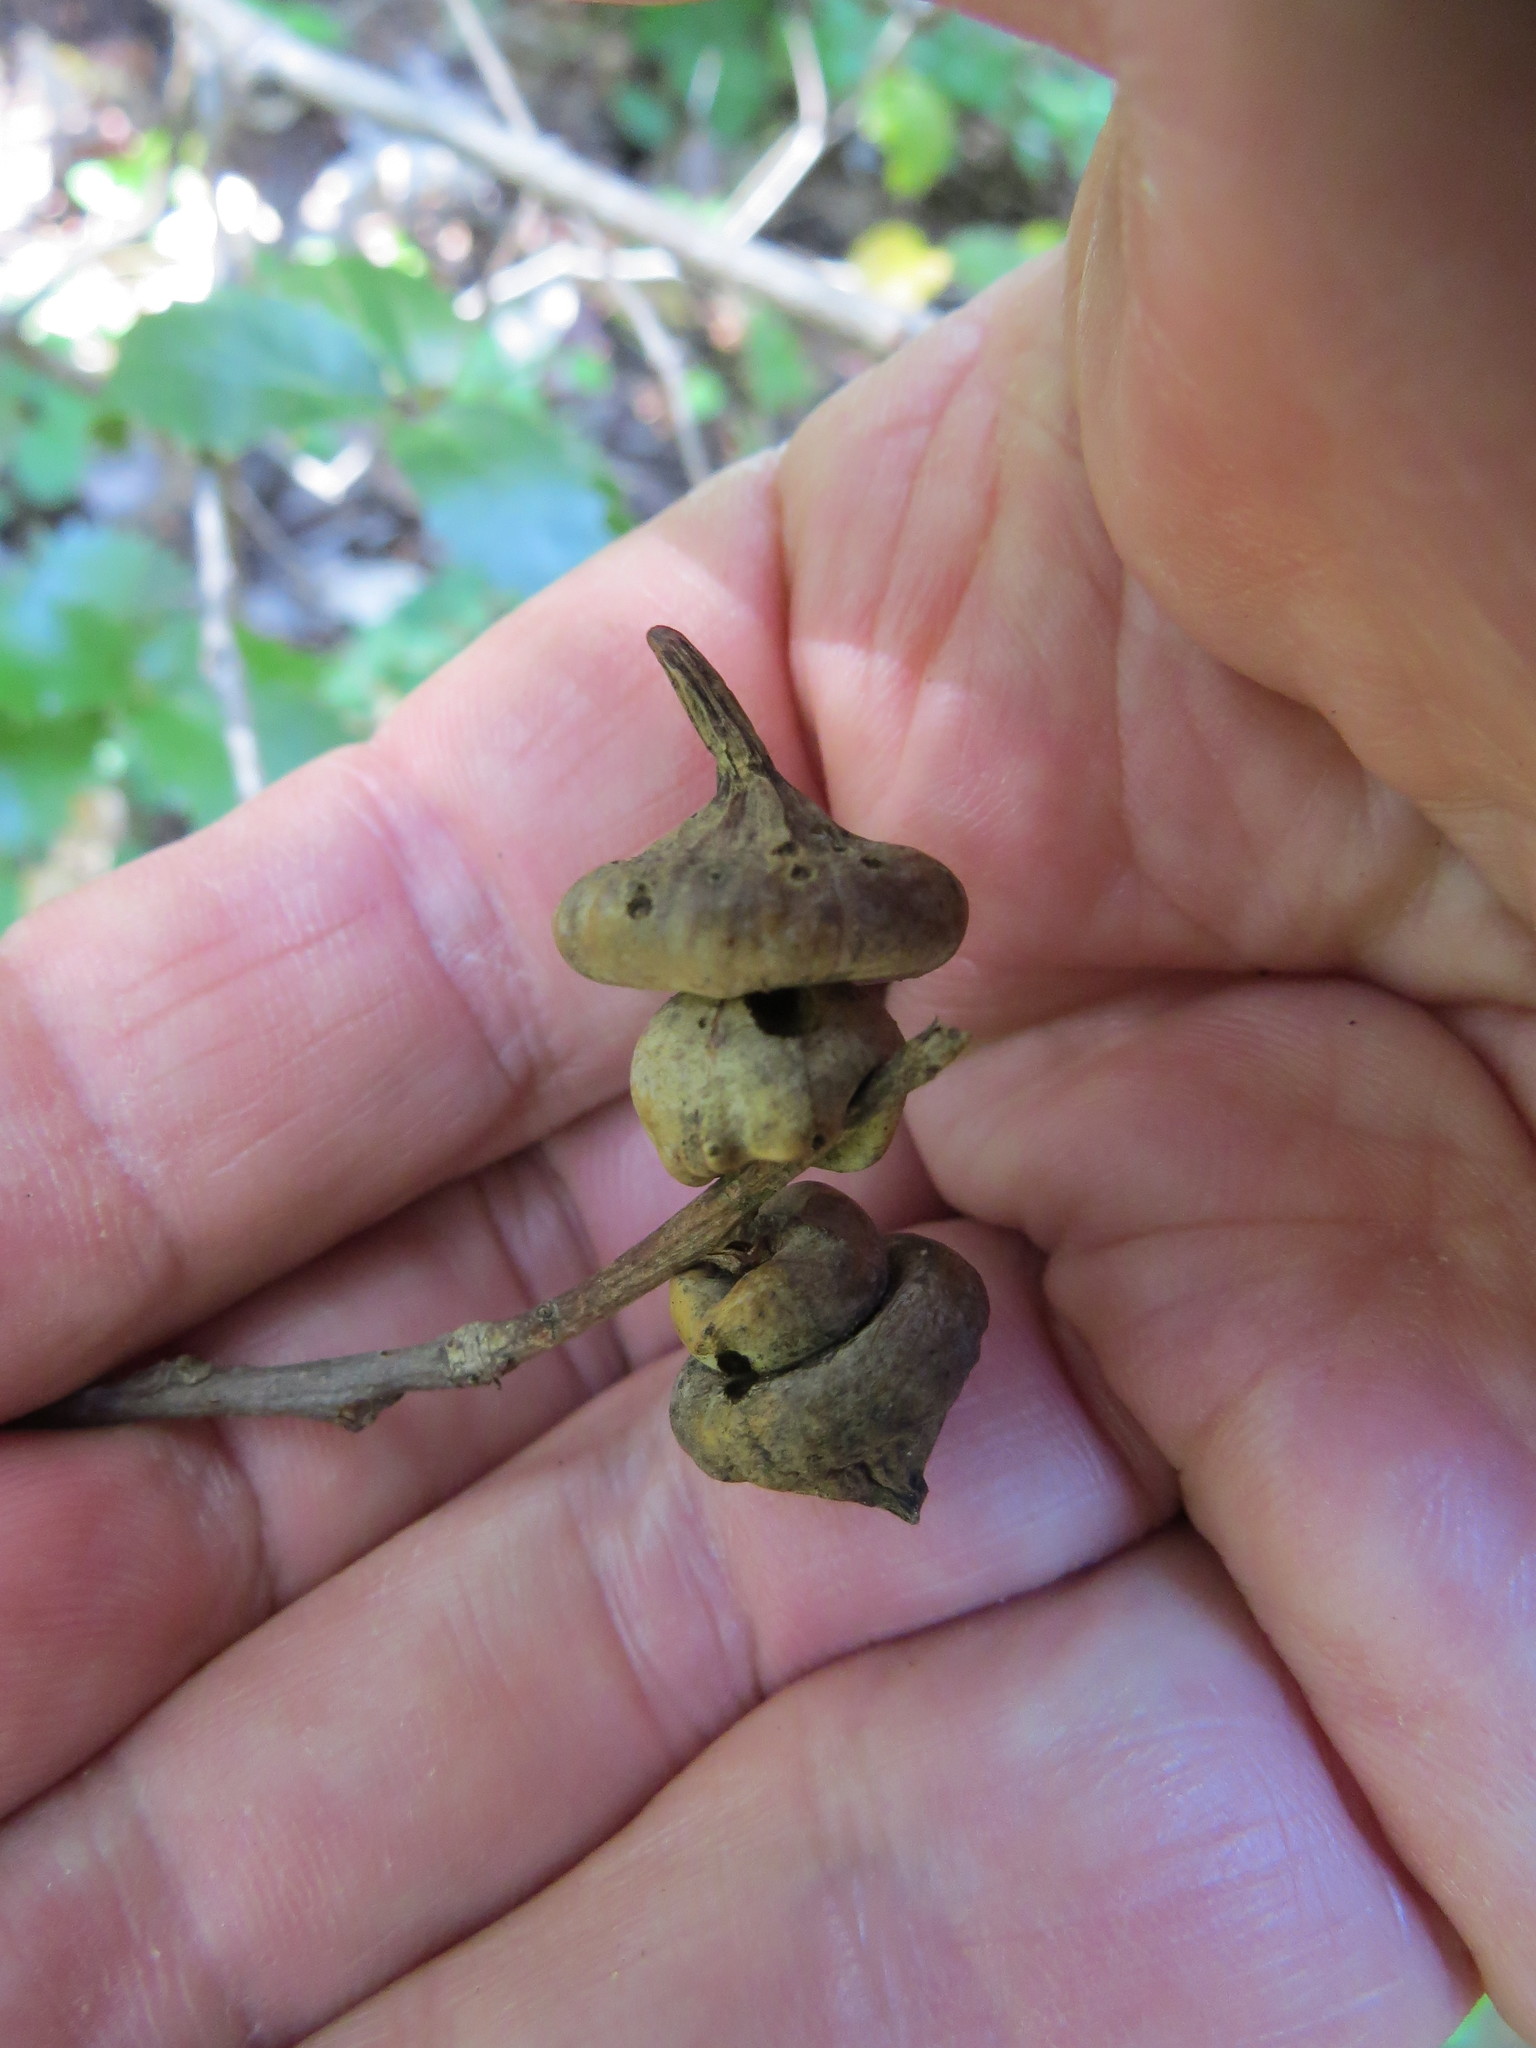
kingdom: Animalia
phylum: Arthropoda
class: Insecta
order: Hymenoptera
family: Cynipidae
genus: Heteroecus
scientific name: Heteroecus
